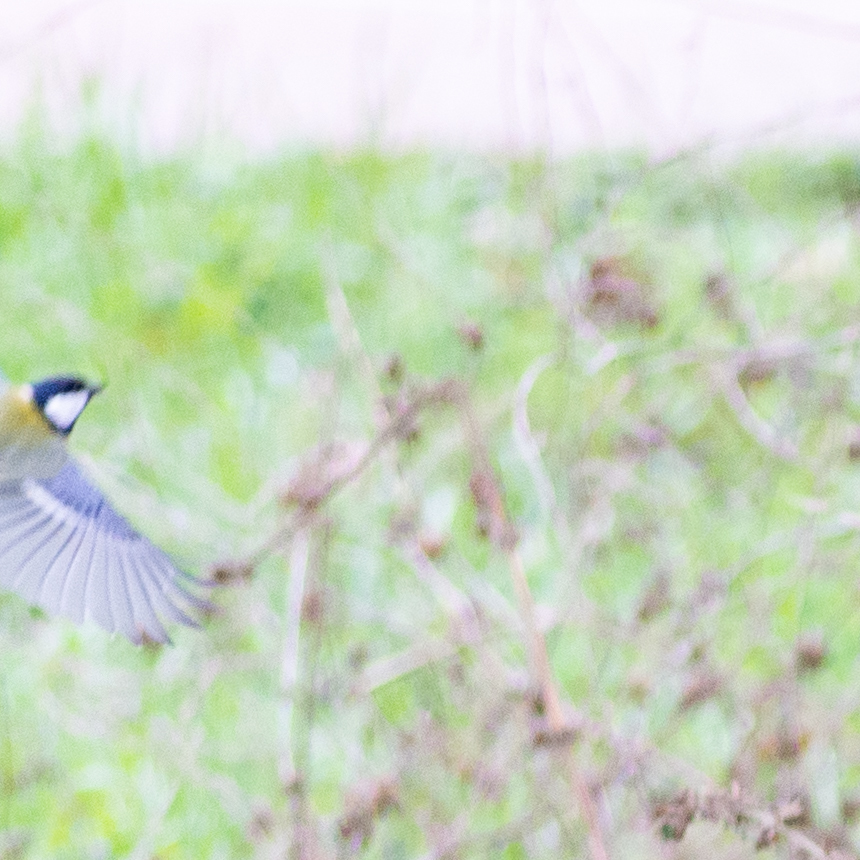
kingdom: Animalia
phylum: Chordata
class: Aves
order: Passeriformes
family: Paridae
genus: Parus
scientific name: Parus major
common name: Great tit
